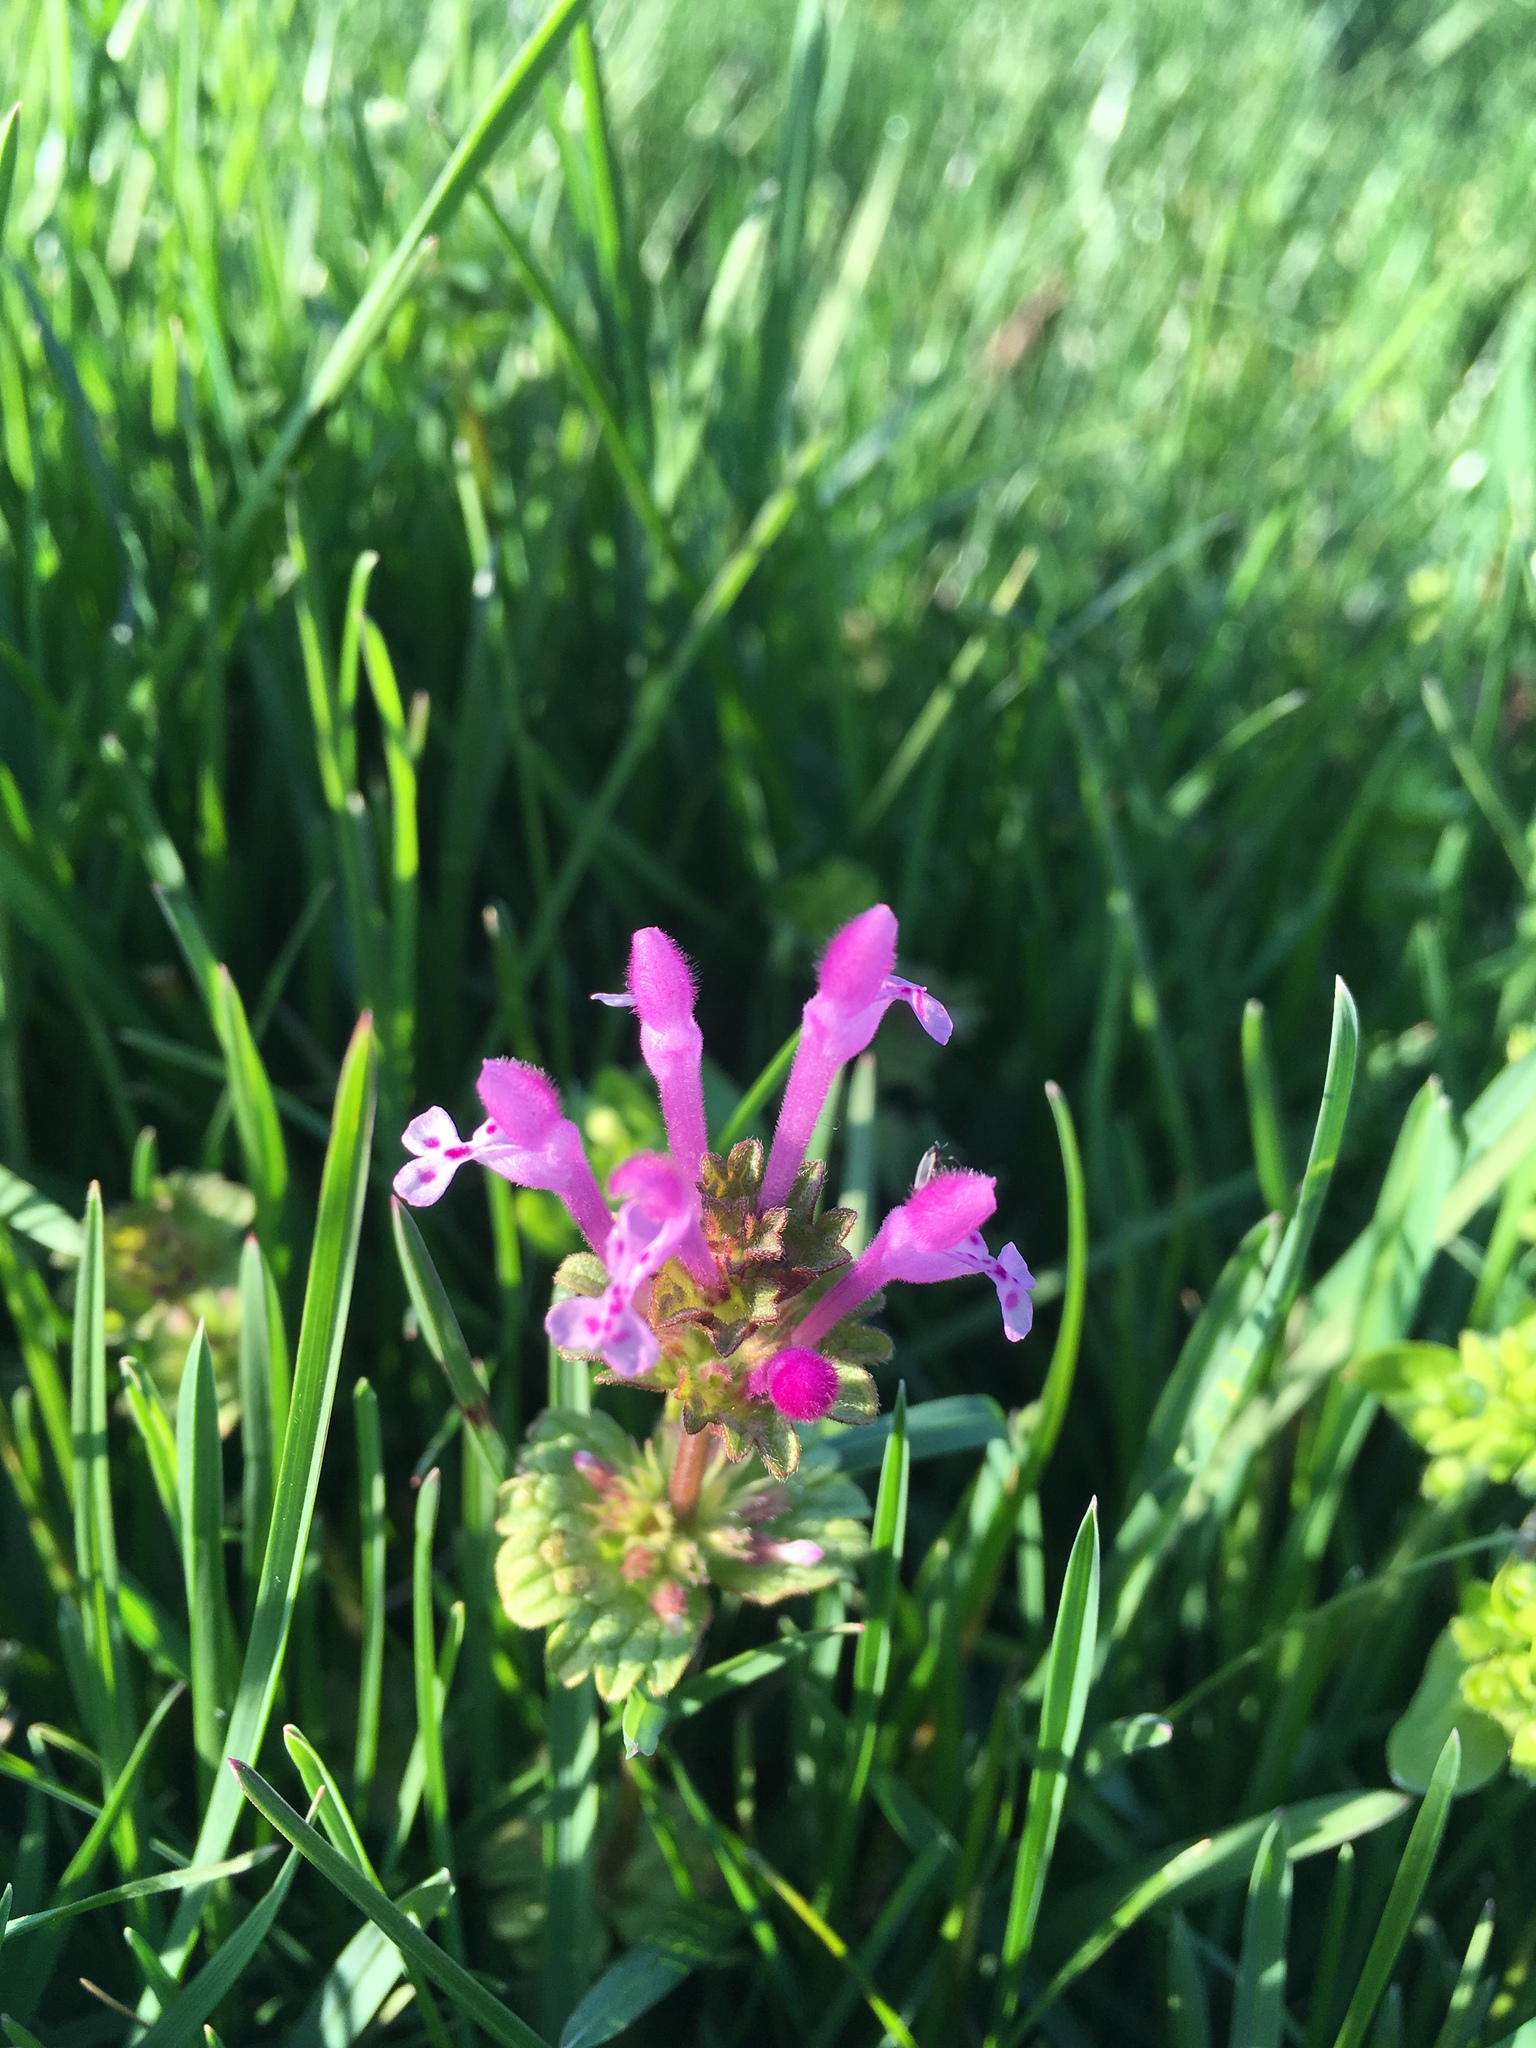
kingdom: Plantae
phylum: Tracheophyta
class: Magnoliopsida
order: Lamiales
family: Lamiaceae
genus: Lamium
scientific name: Lamium amplexicaule
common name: Henbit dead-nettle
